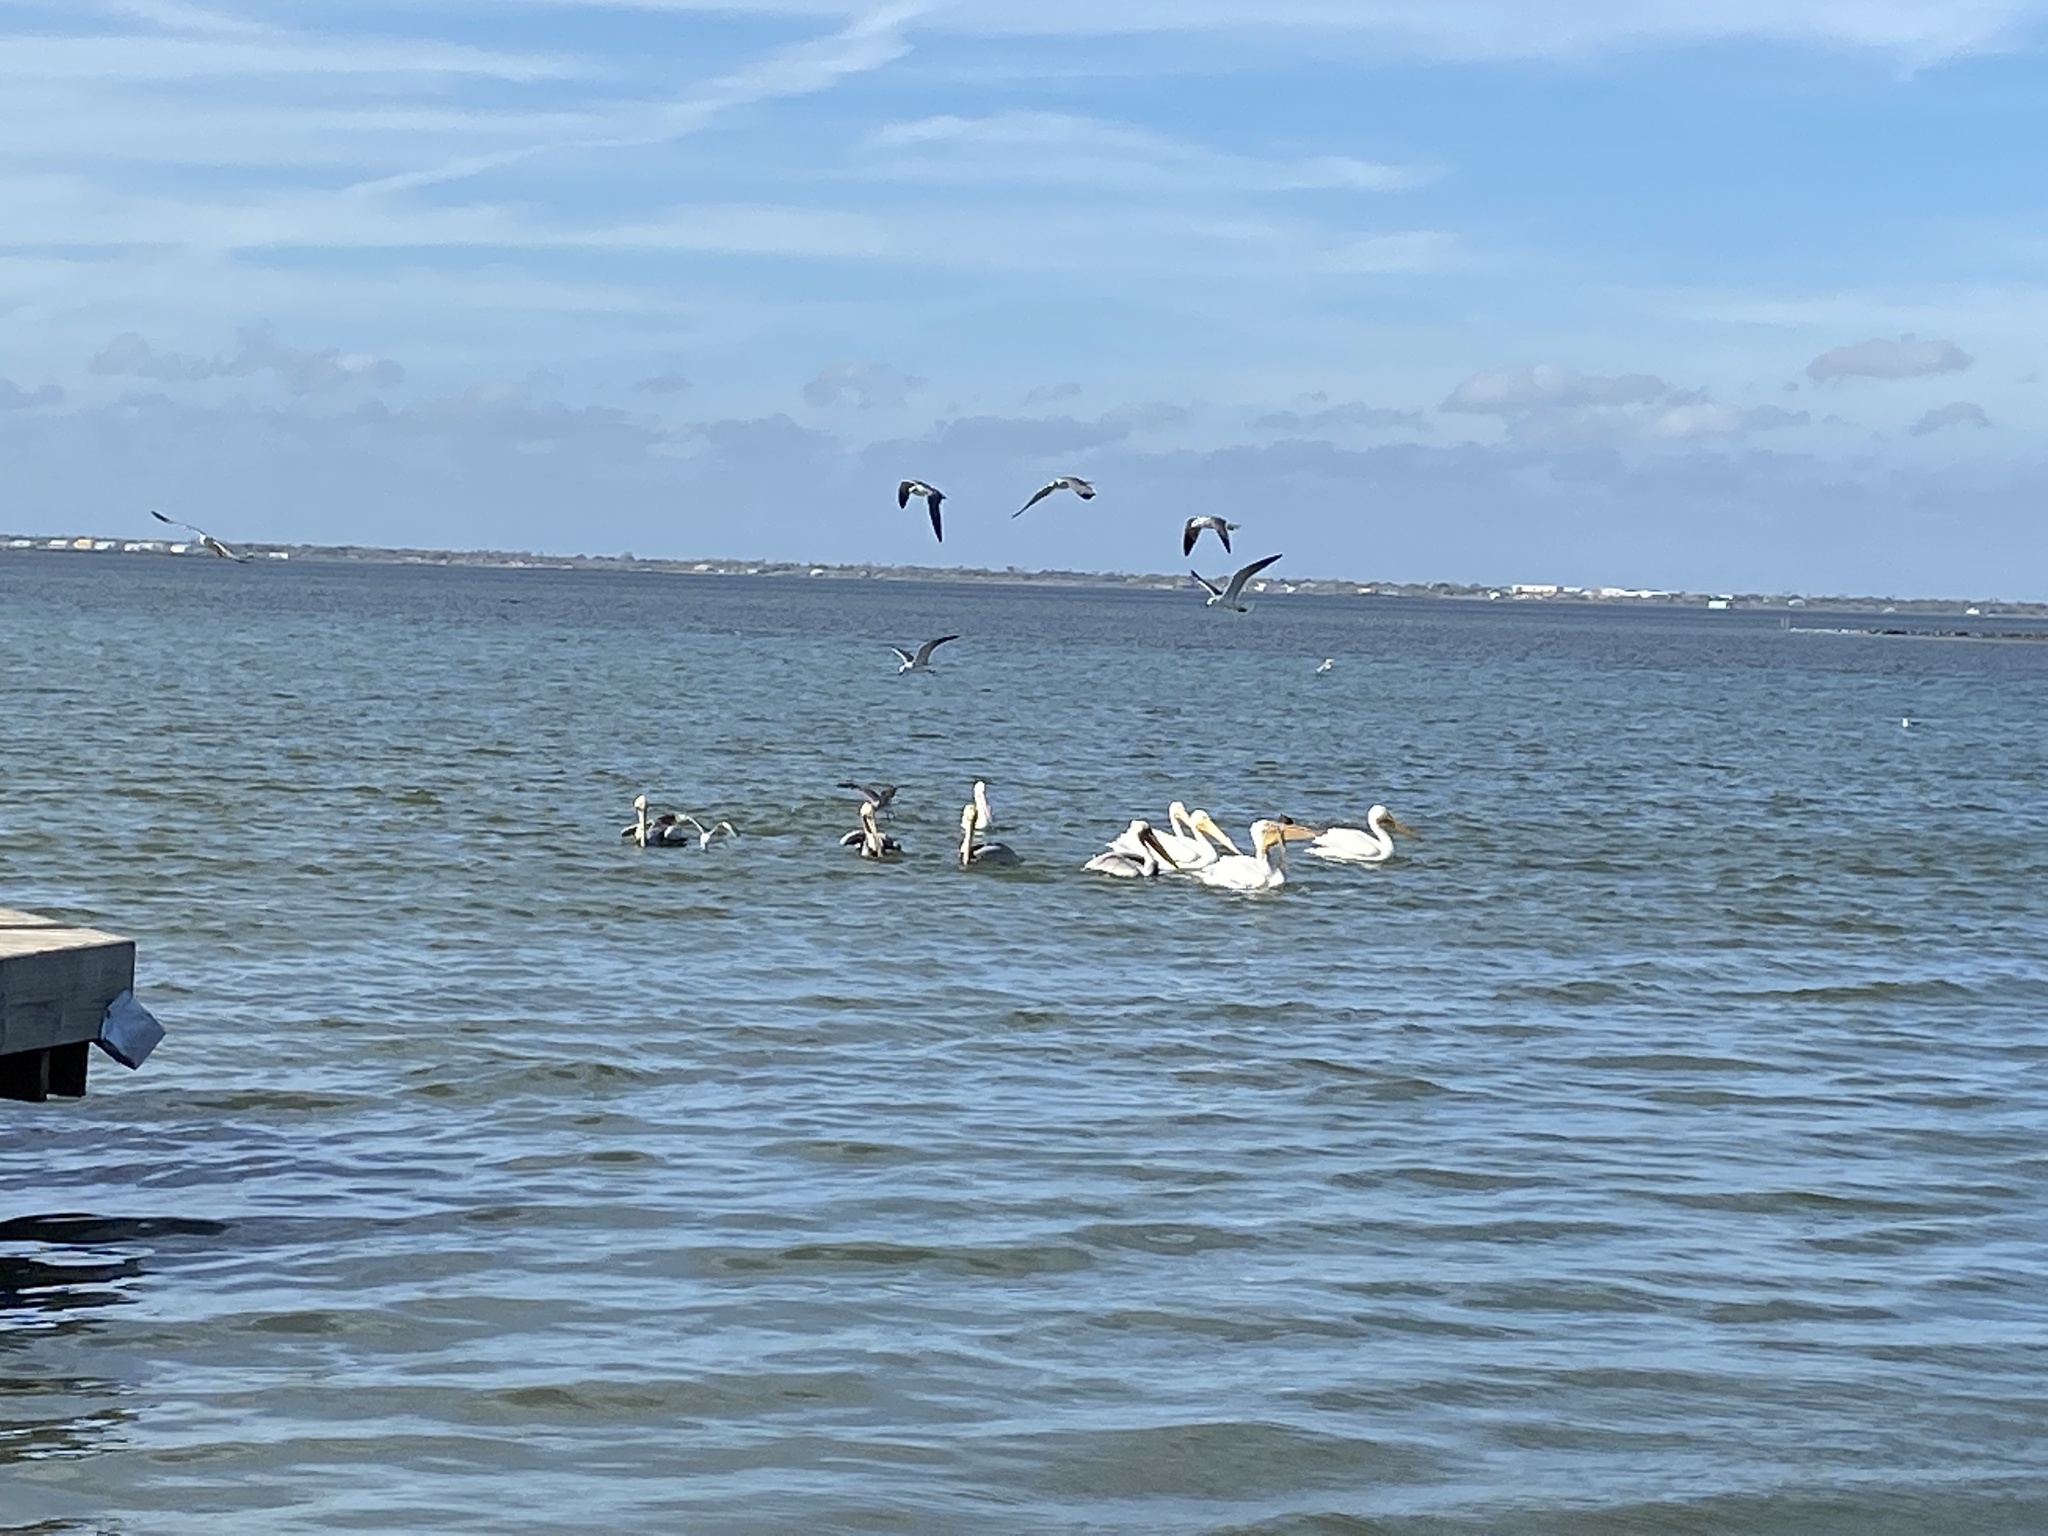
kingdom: Animalia
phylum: Chordata
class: Aves
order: Pelecaniformes
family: Pelecanidae
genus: Pelecanus
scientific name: Pelecanus occidentalis
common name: Brown pelican
